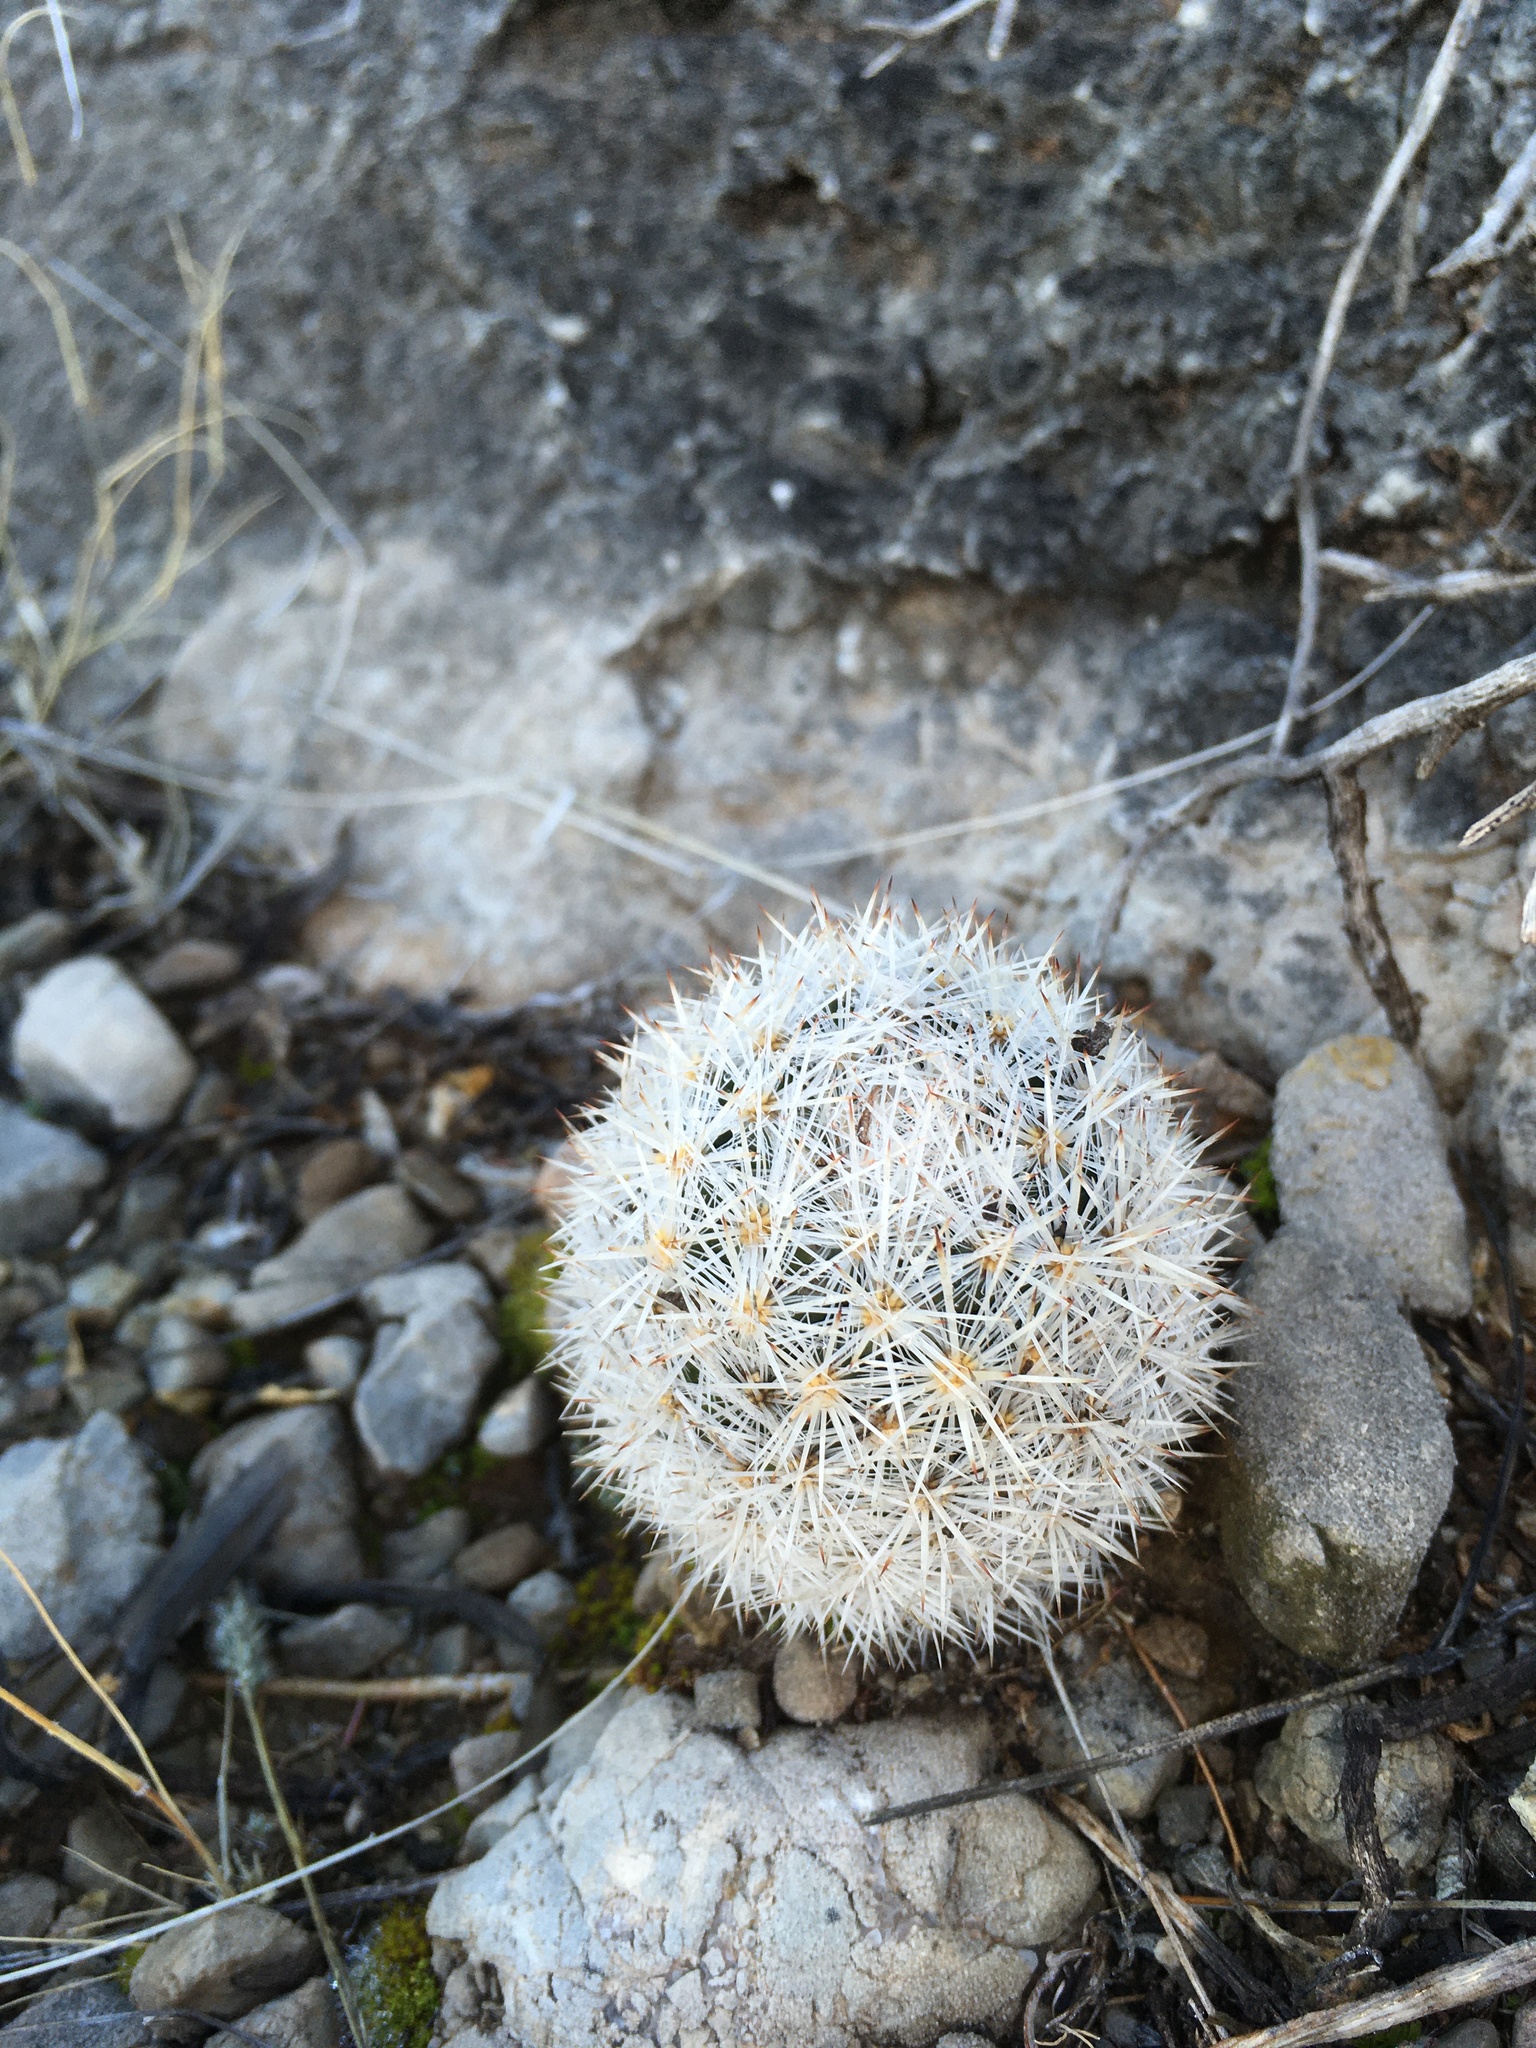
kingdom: Plantae
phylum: Tracheophyta
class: Magnoliopsida
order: Caryophyllales
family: Cactaceae
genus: Pelecyphora
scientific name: Pelecyphora sneedii
